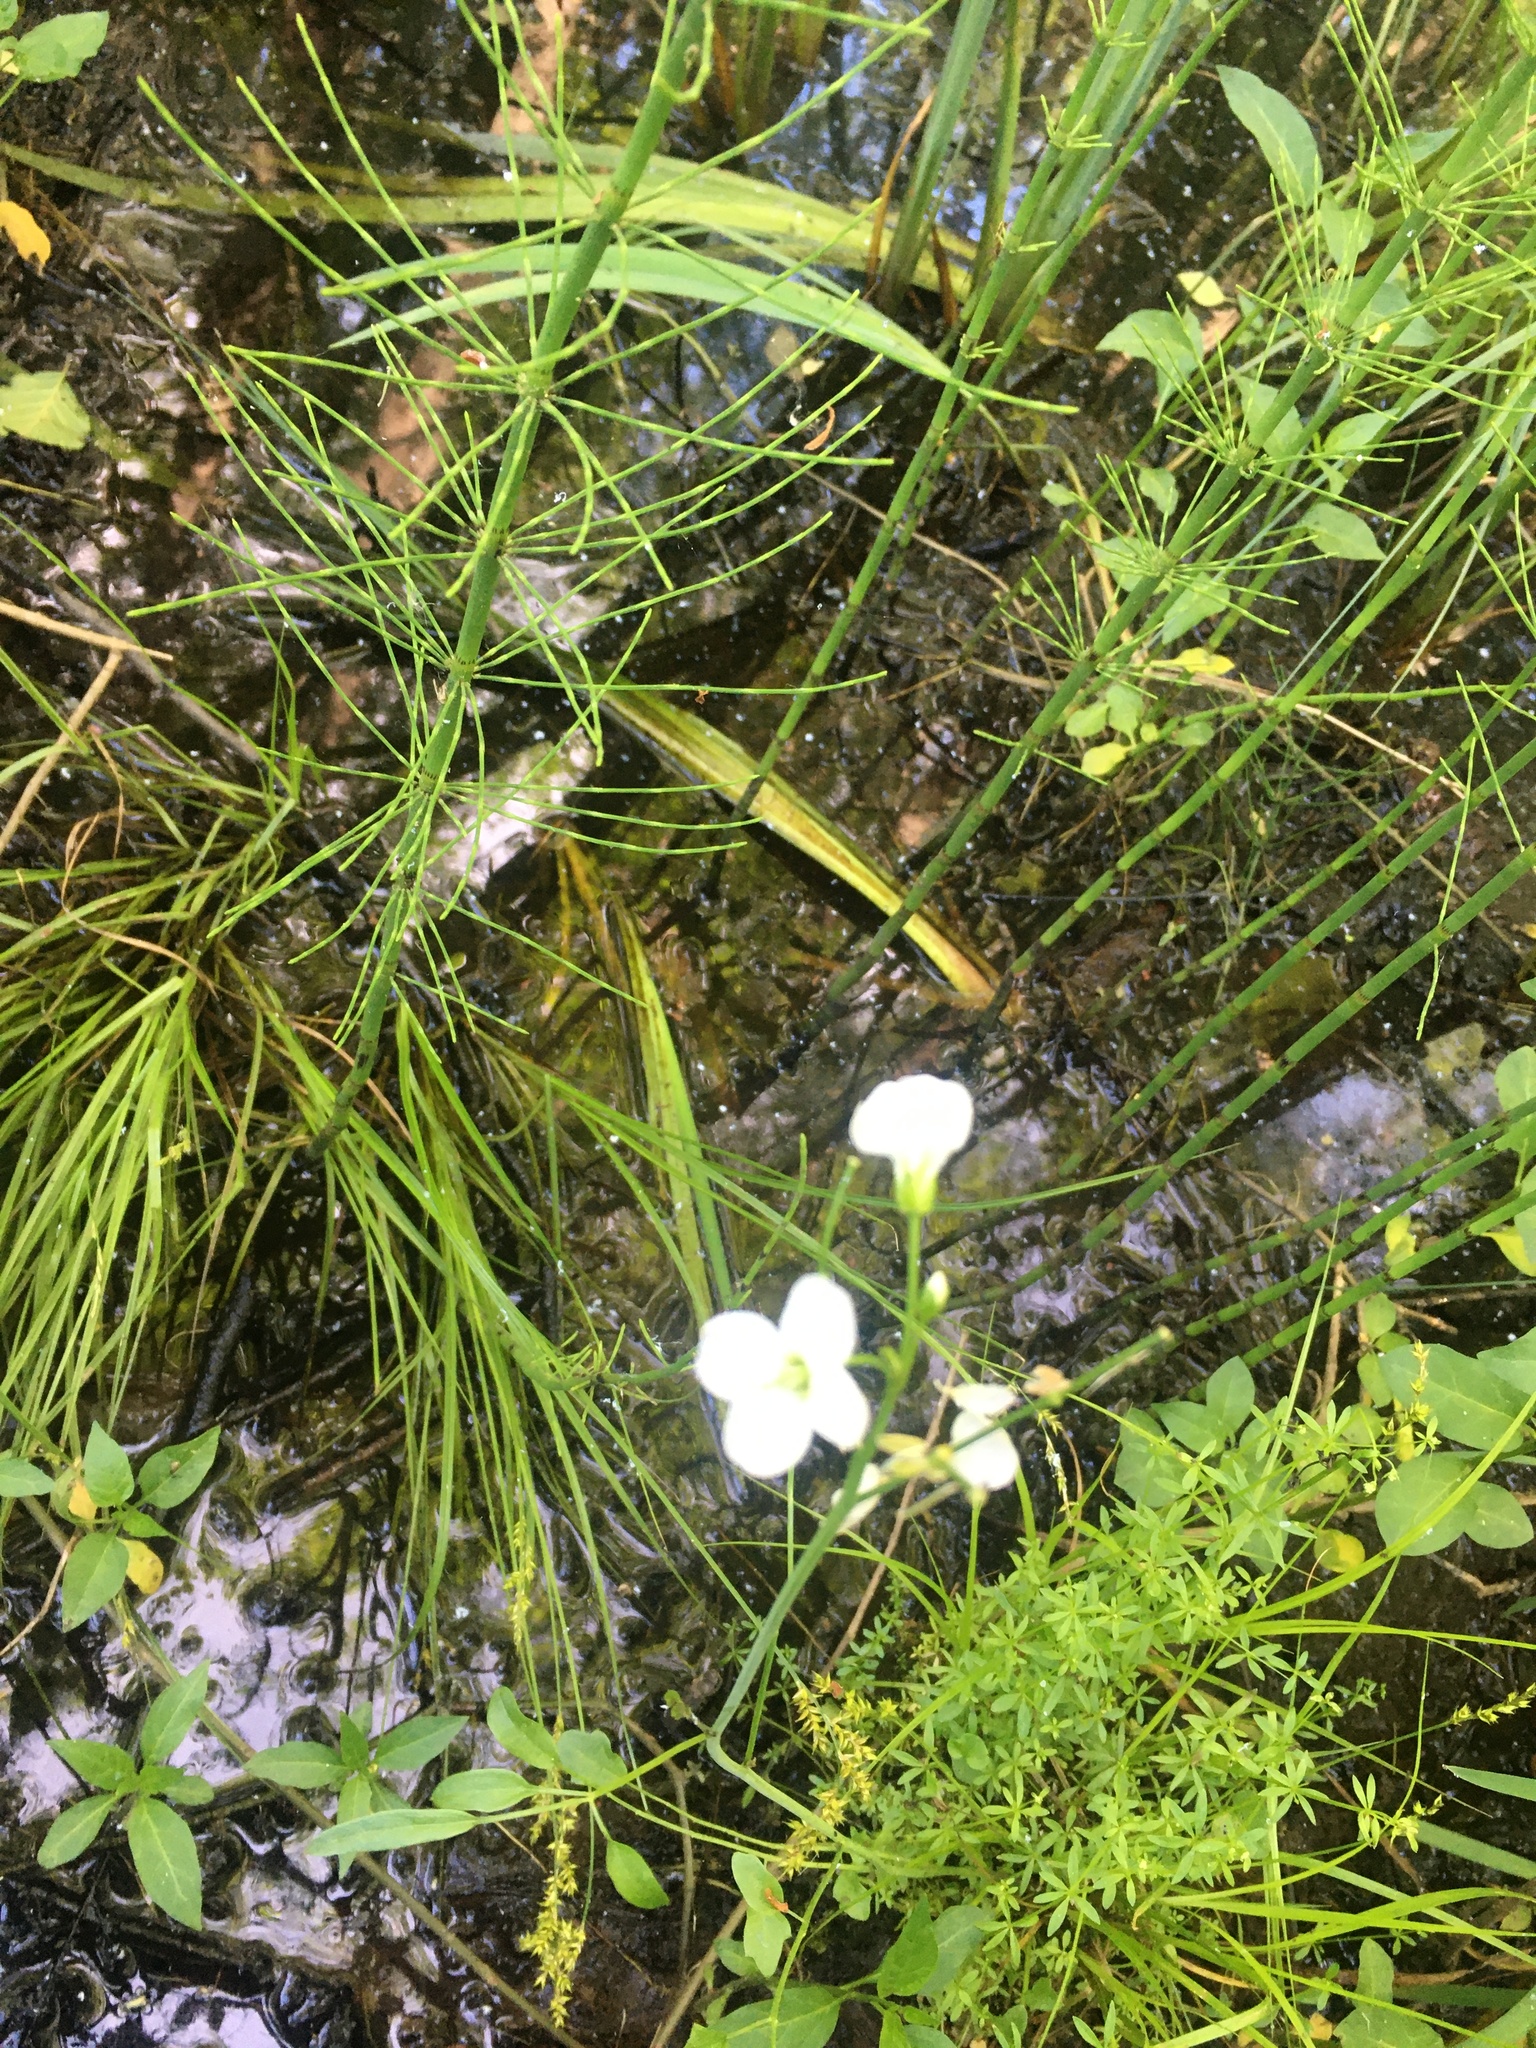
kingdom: Plantae
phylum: Tracheophyta
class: Magnoliopsida
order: Brassicales
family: Brassicaceae
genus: Cardamine
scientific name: Cardamine dentata
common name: Toothed bittercress
